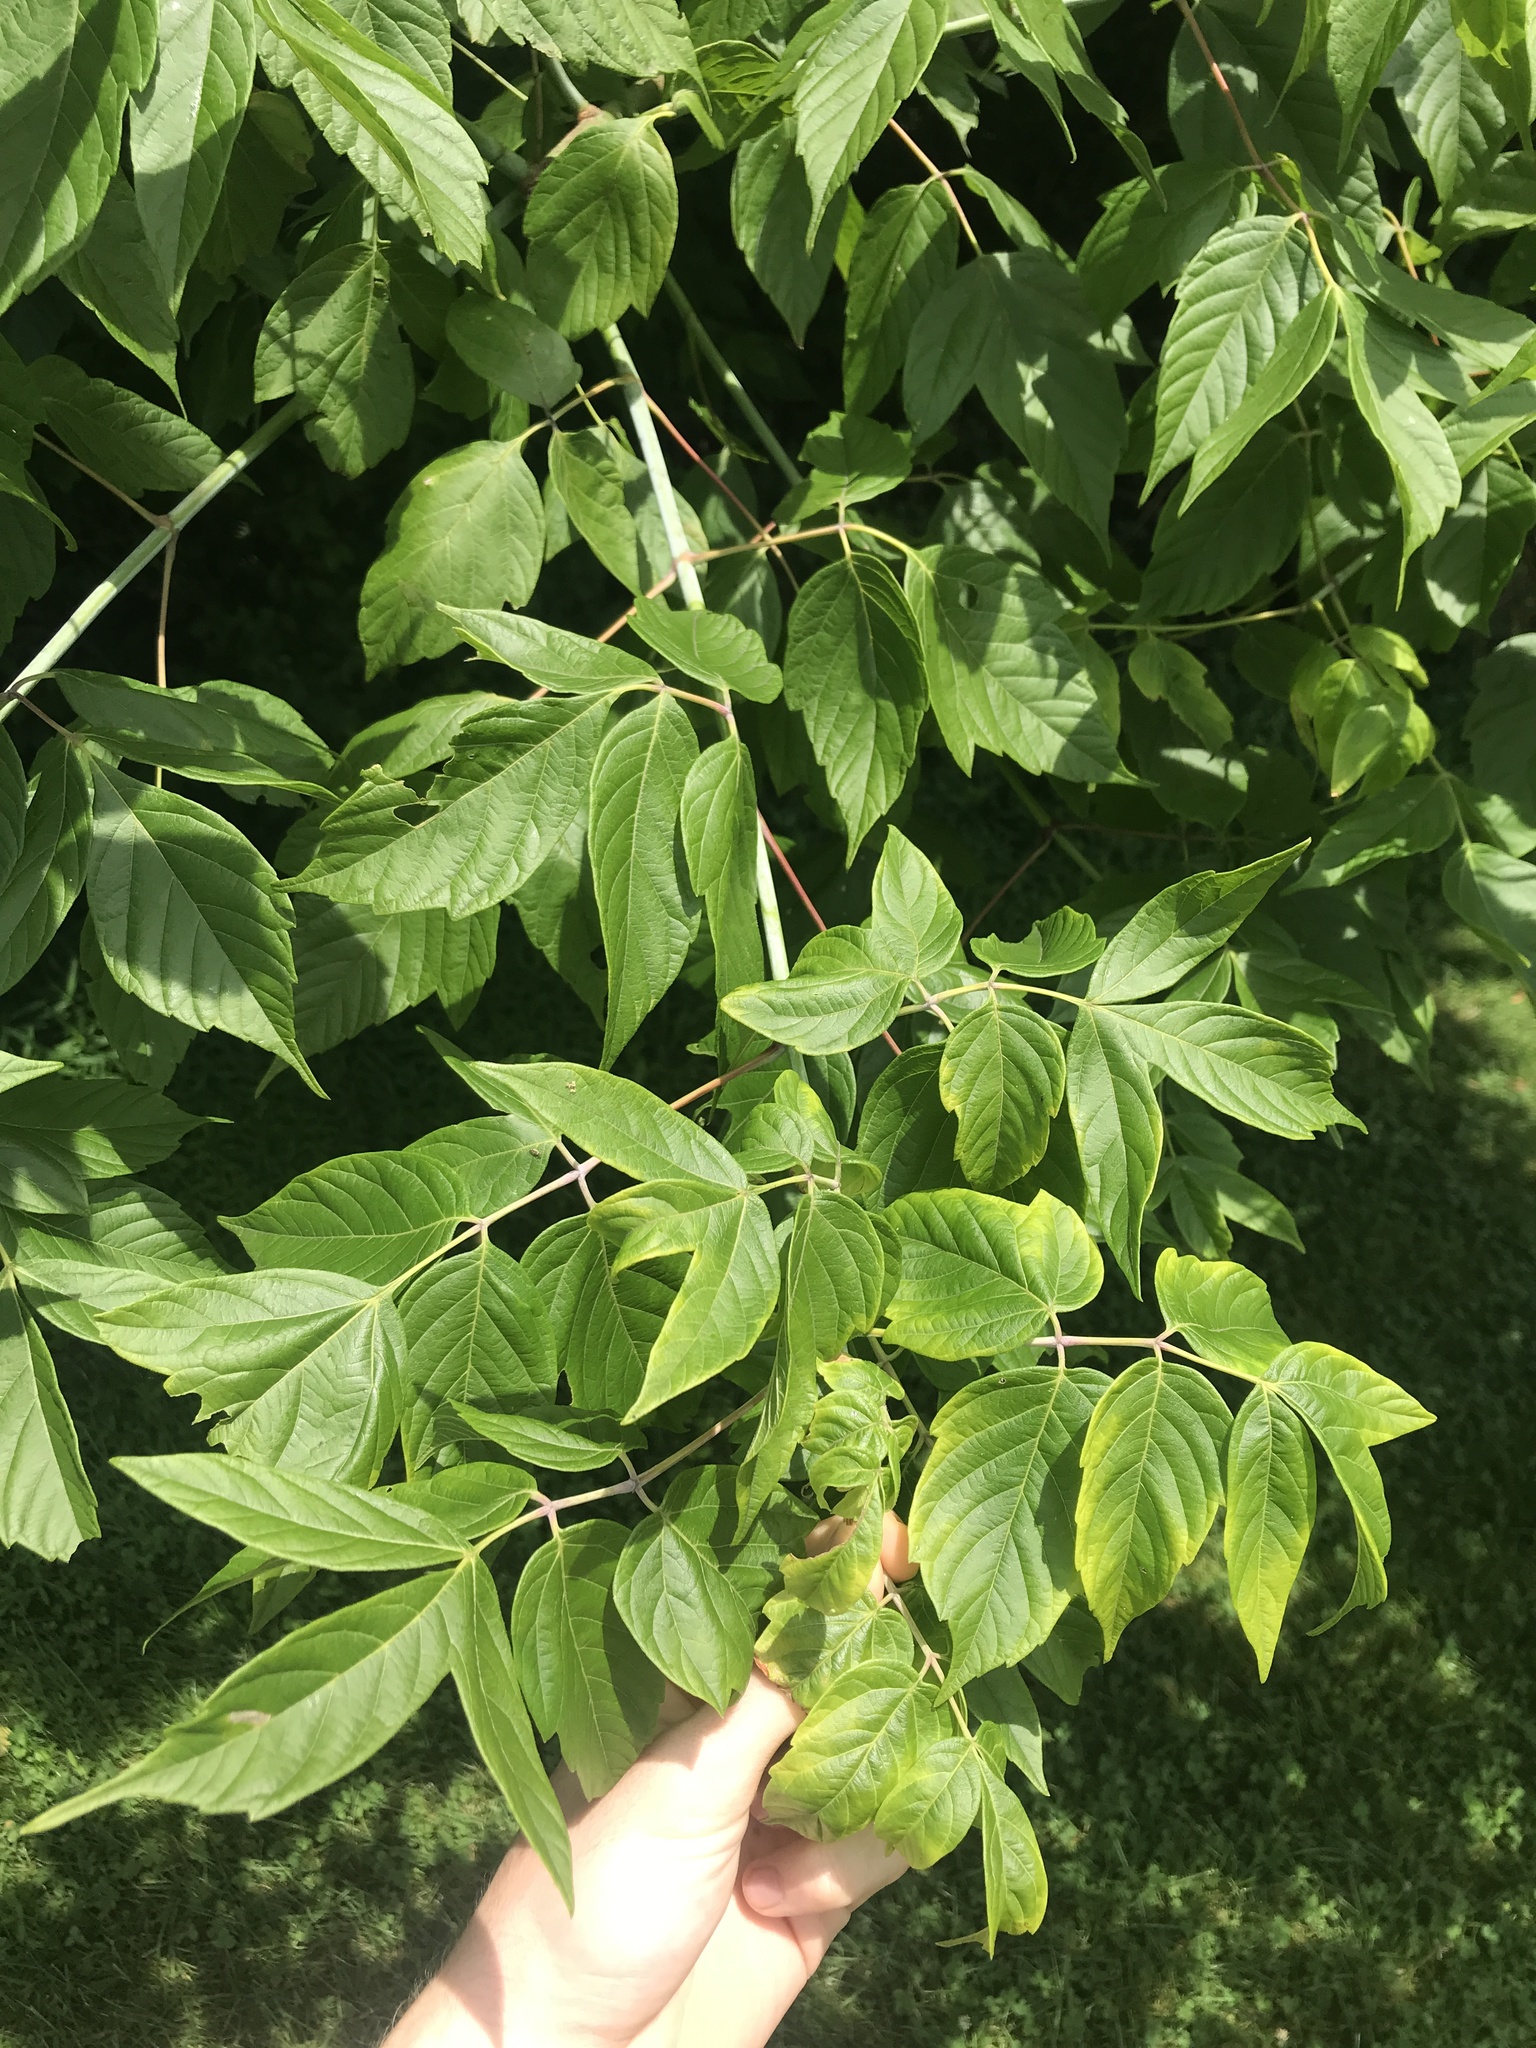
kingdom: Plantae
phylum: Tracheophyta
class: Magnoliopsida
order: Sapindales
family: Sapindaceae
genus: Acer
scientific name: Acer negundo
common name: Ashleaf maple
